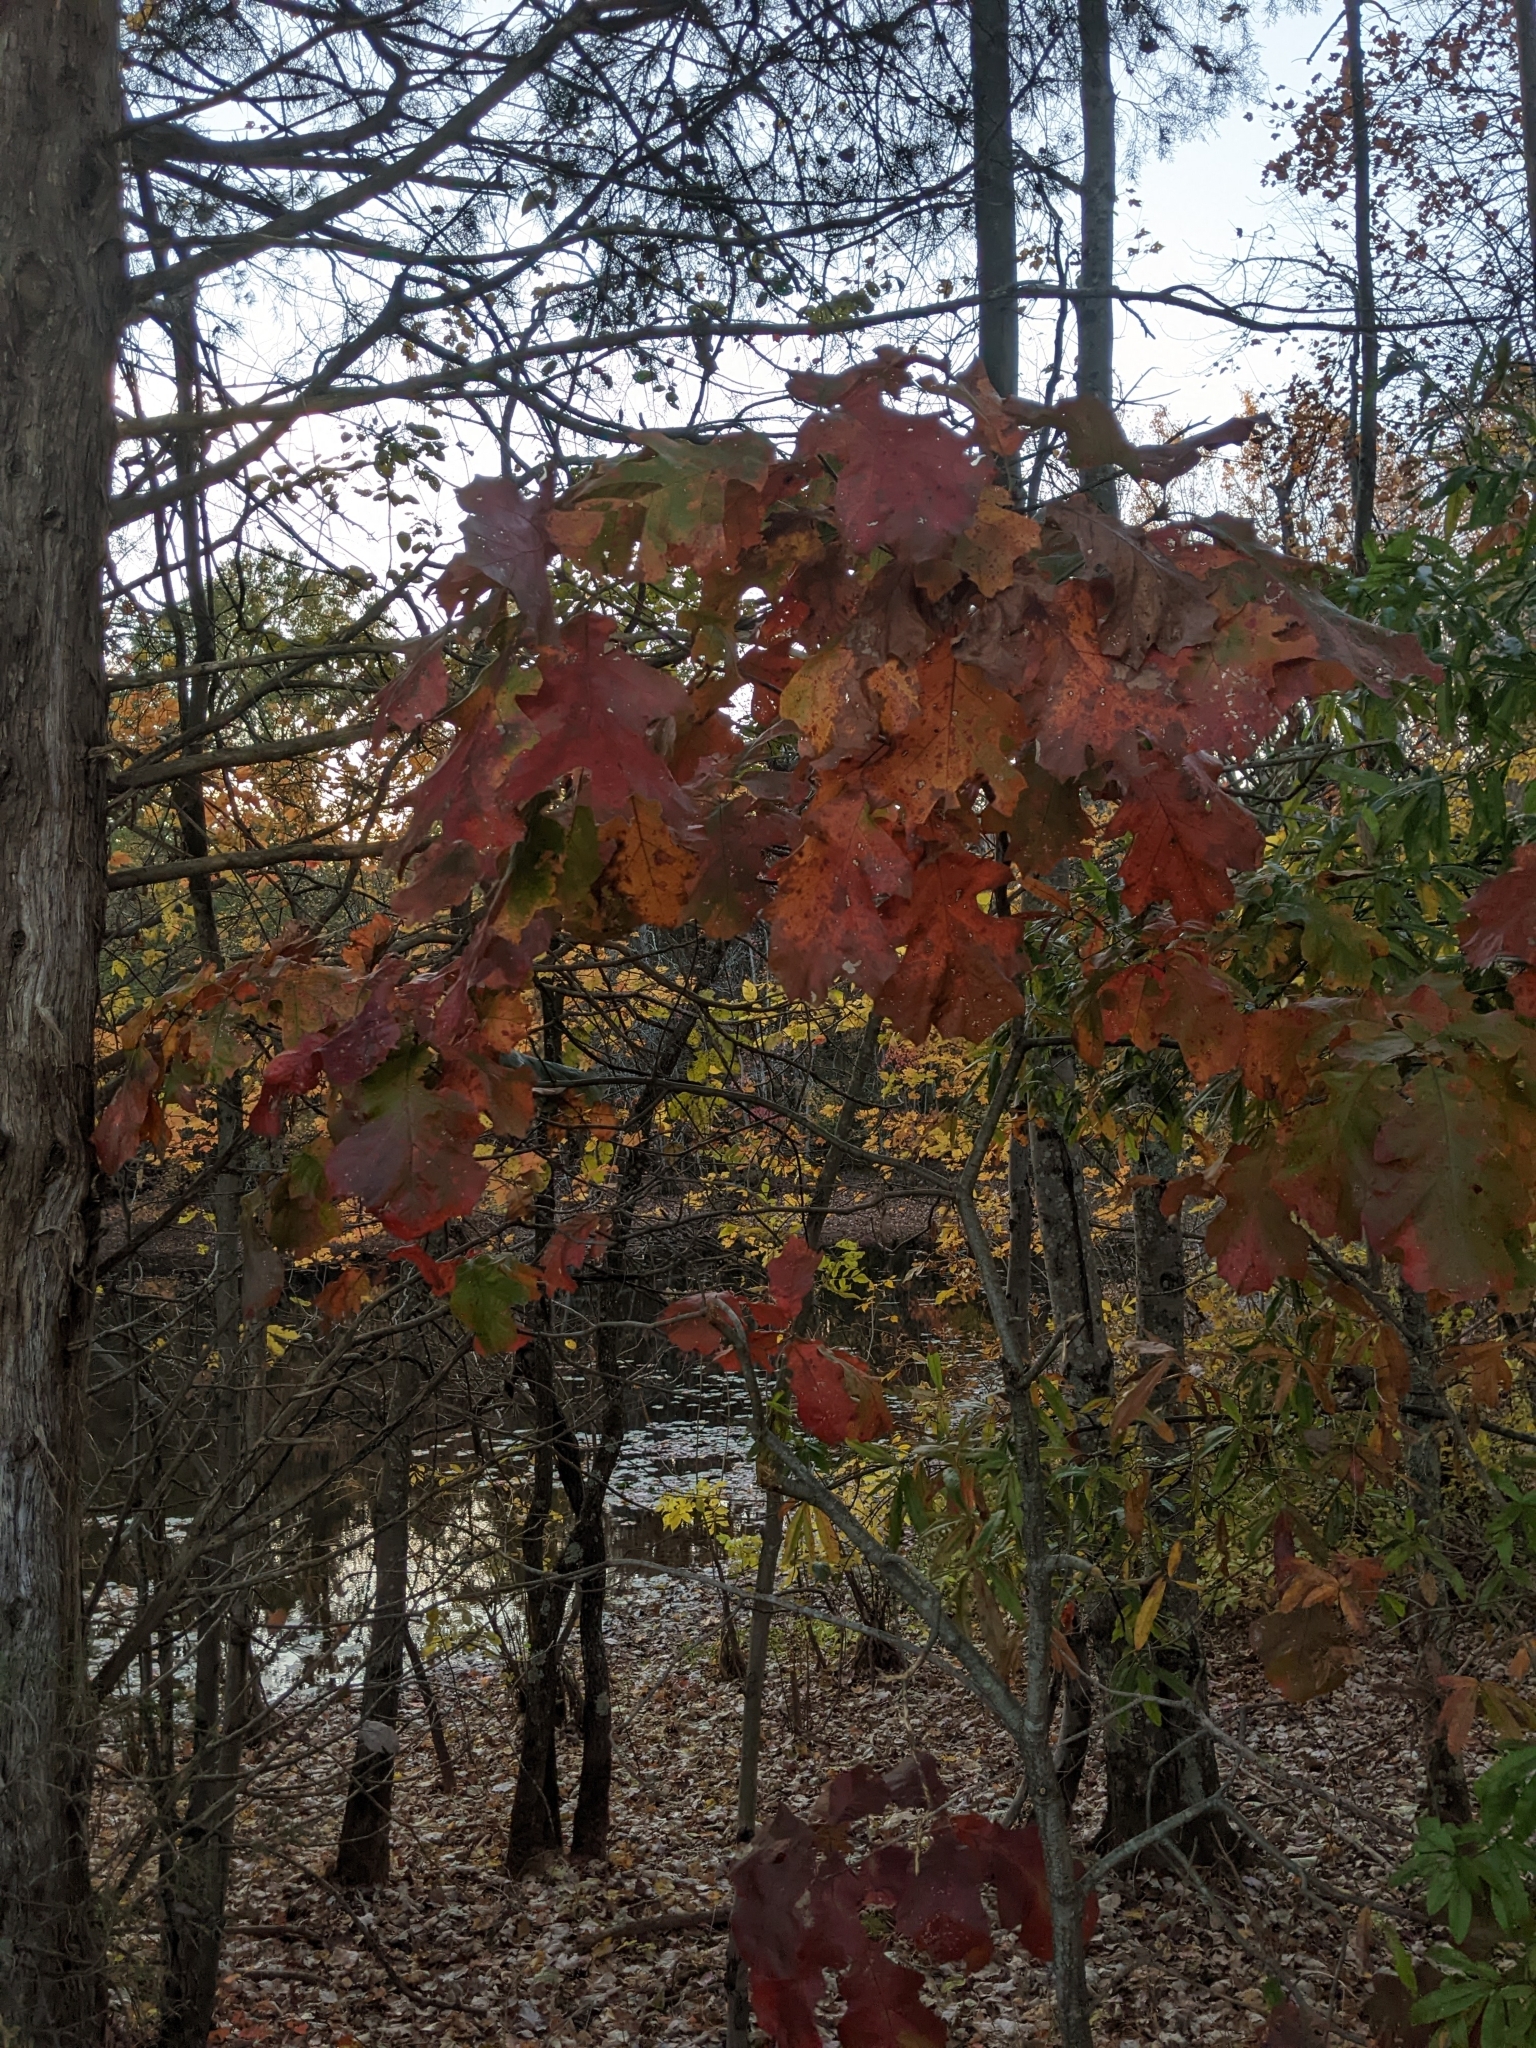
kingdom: Plantae
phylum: Tracheophyta
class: Magnoliopsida
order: Fagales
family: Fagaceae
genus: Quercus
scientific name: Quercus velutina
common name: Black oak
